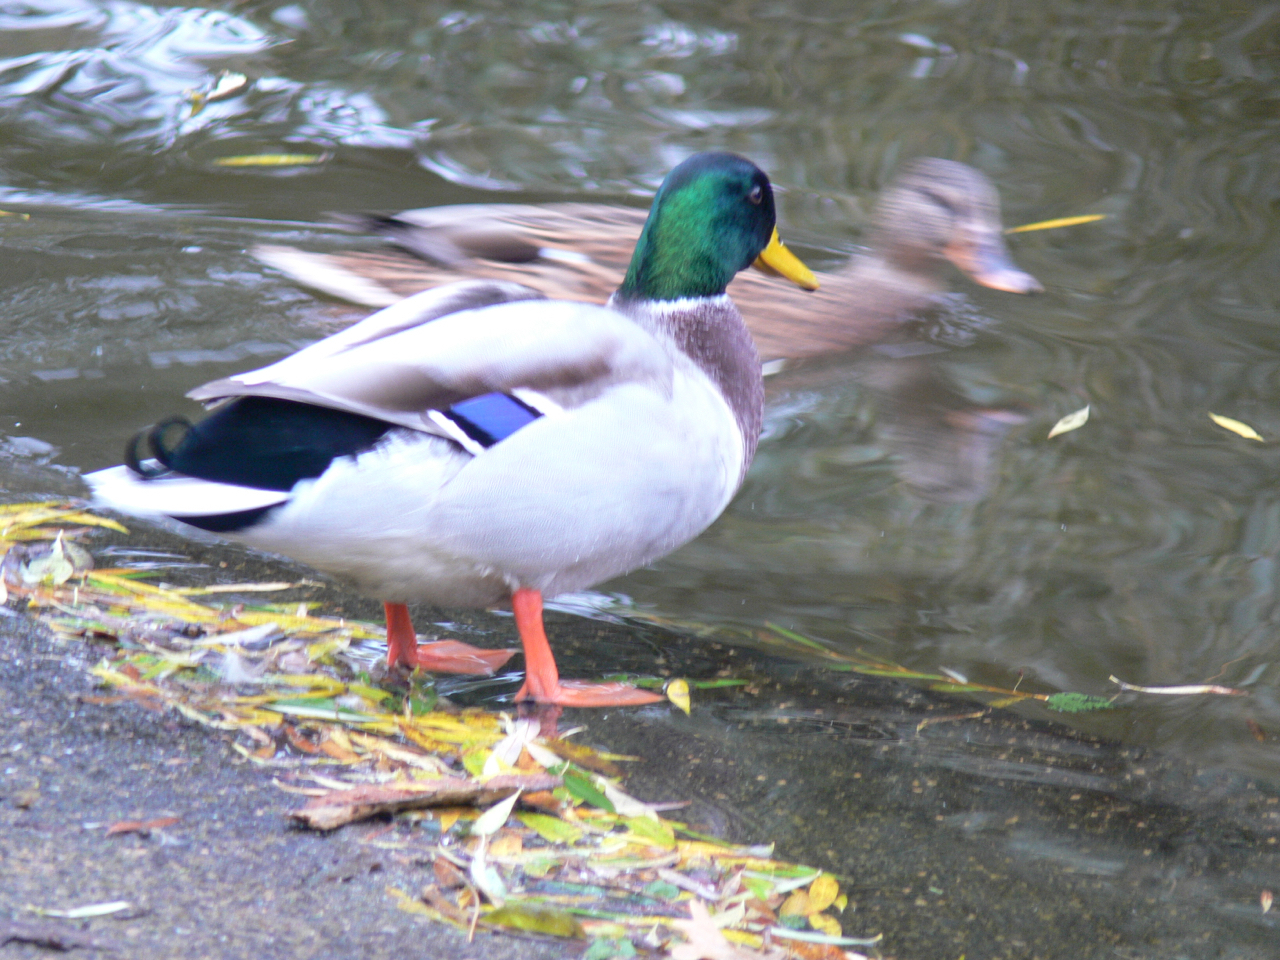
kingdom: Animalia
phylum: Chordata
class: Aves
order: Anseriformes
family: Anatidae
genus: Anas
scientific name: Anas platyrhynchos
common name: Mallard
